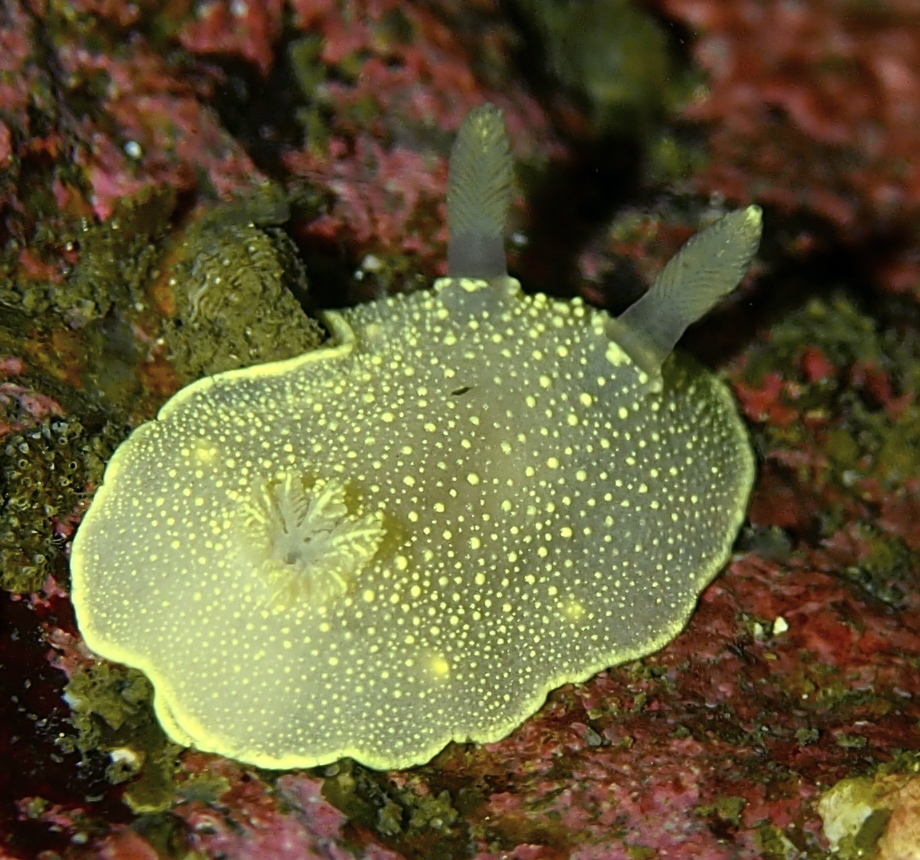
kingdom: Animalia
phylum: Mollusca
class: Gastropoda
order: Nudibranchia
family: Cadlinidae
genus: Cadlina
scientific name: Cadlina laevis
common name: White atlantic cadlina
